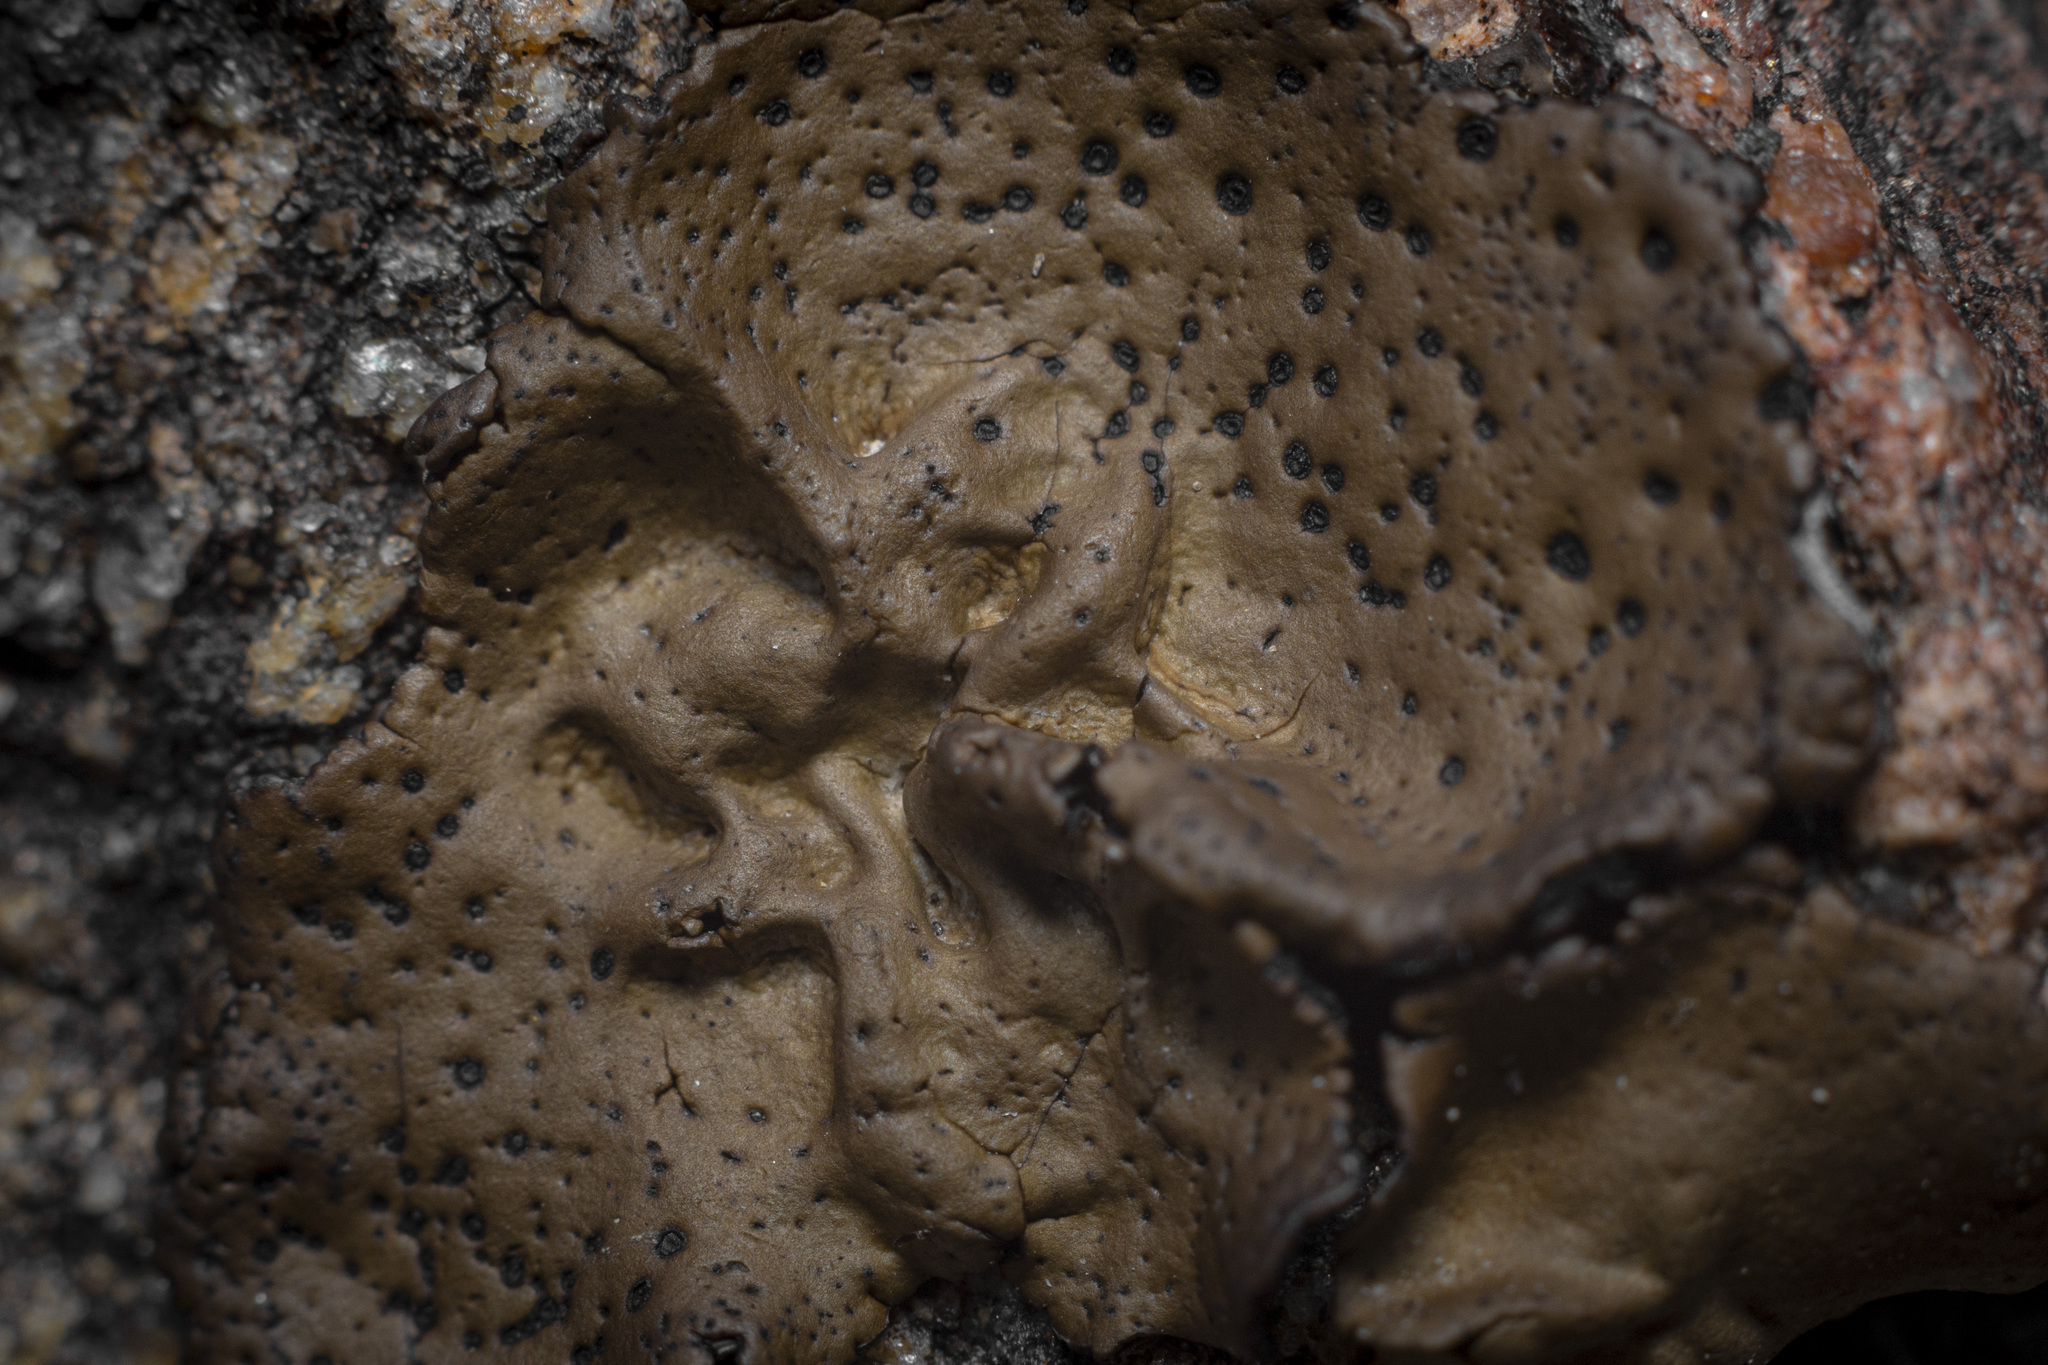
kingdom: Fungi
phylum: Ascomycota
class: Lecanoromycetes
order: Umbilicariales
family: Umbilicariaceae
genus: Umbilicaria
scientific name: Umbilicaria phaea
